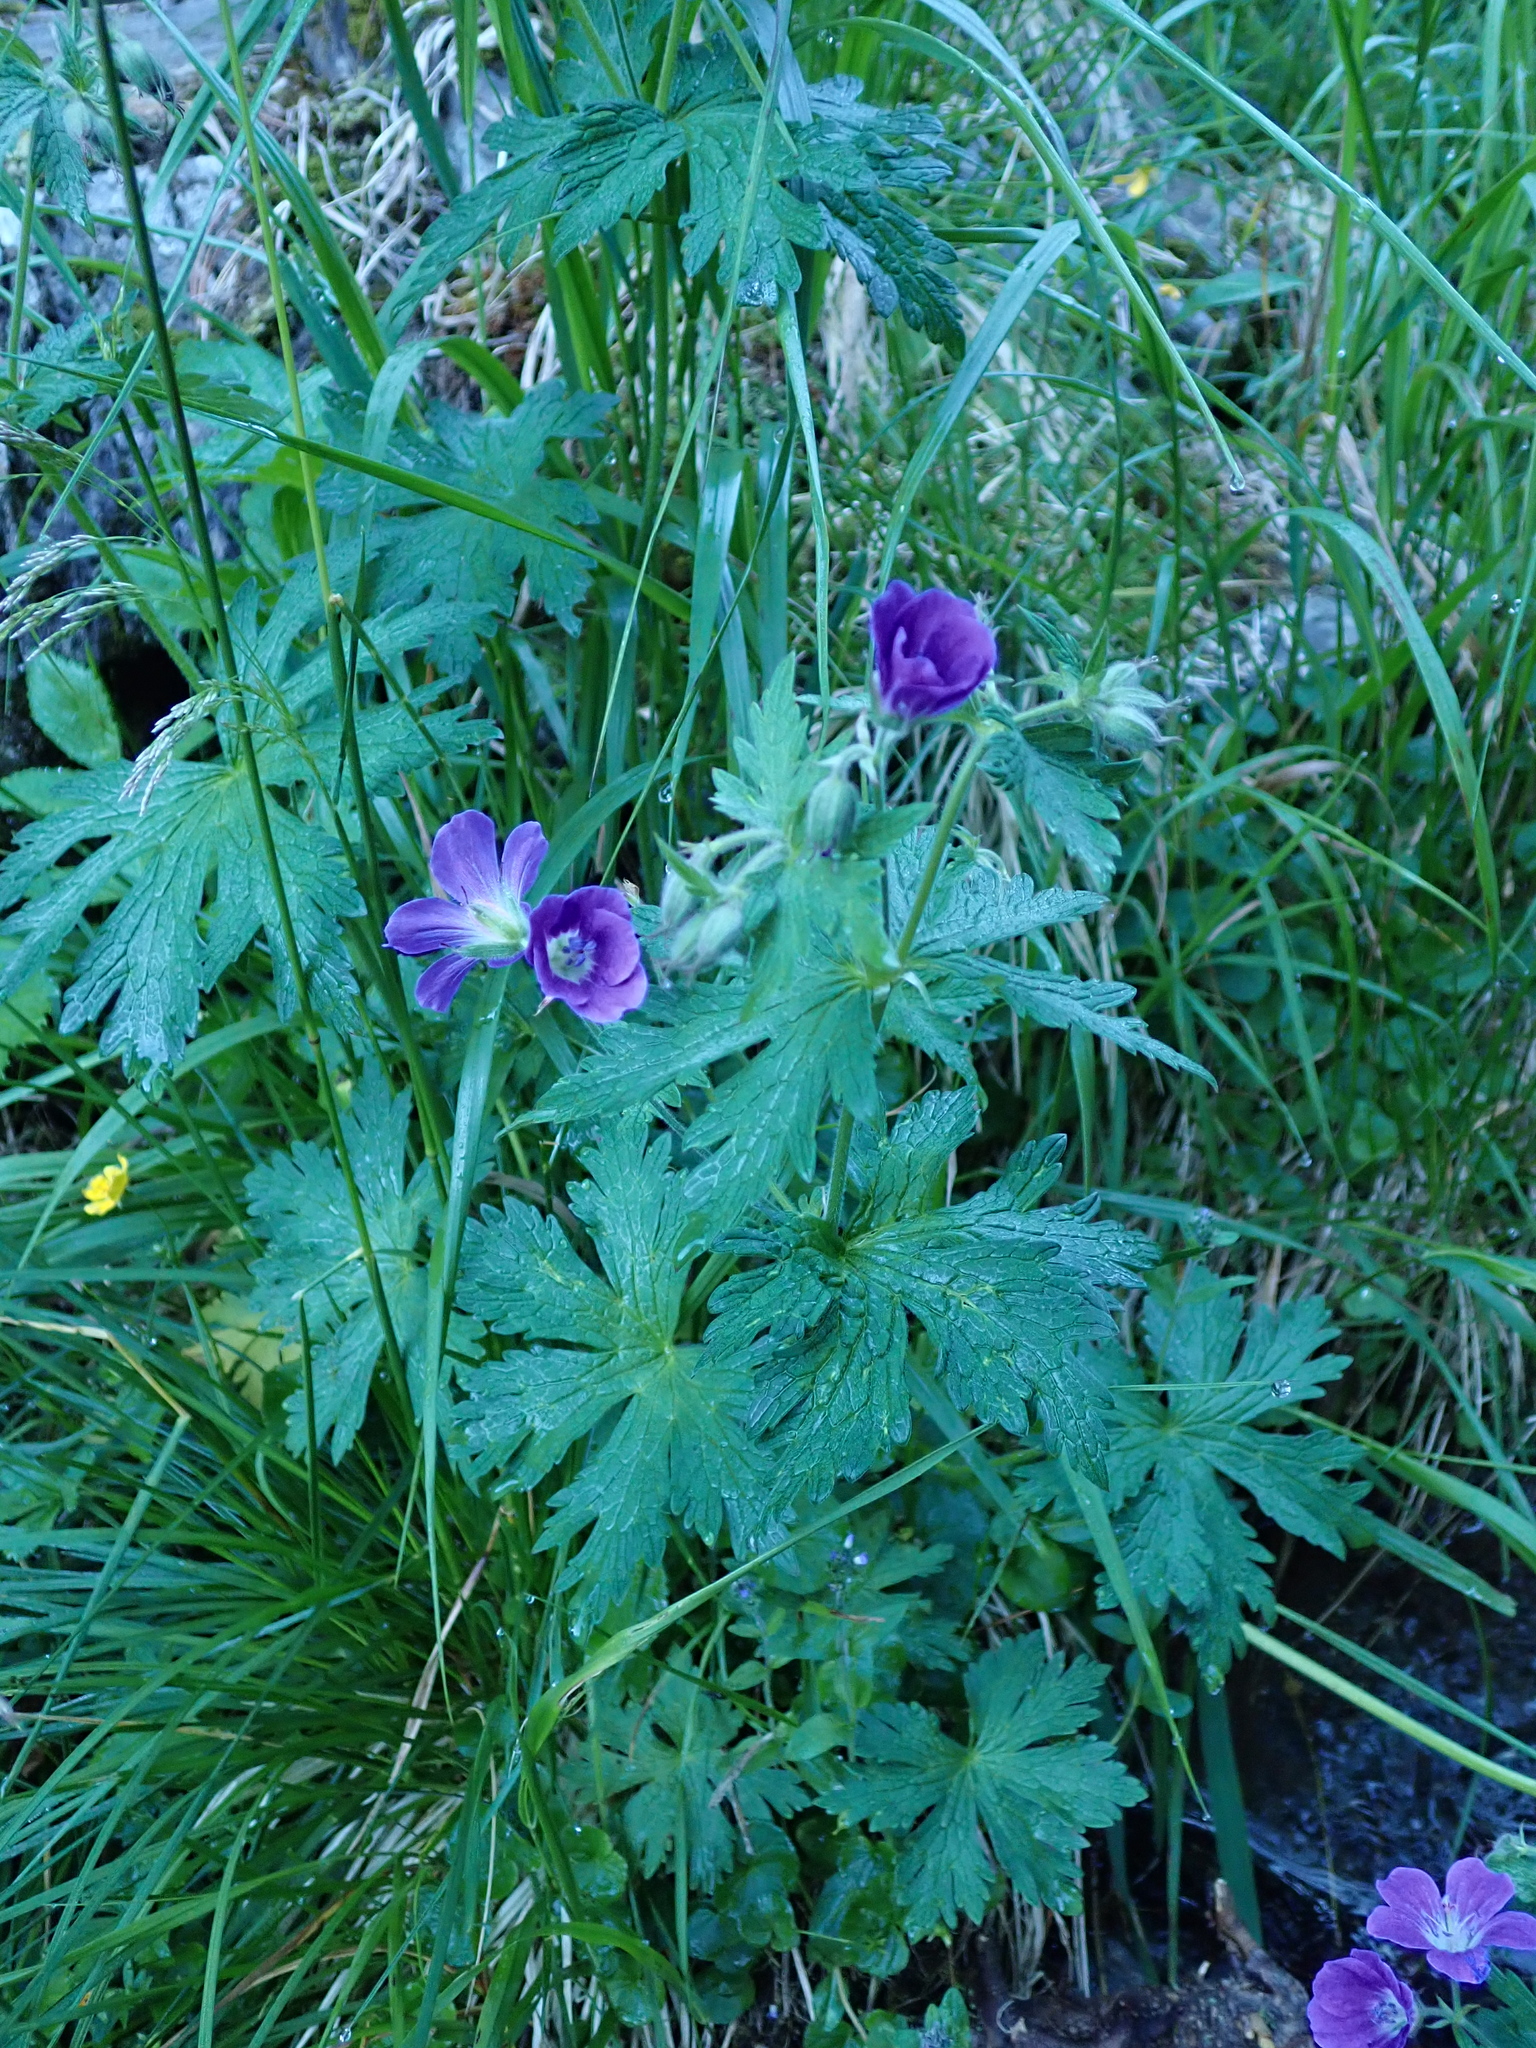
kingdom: Plantae
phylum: Tracheophyta
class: Magnoliopsida
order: Geraniales
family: Geraniaceae
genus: Geranium
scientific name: Geranium sylvaticum
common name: Wood crane's-bill
